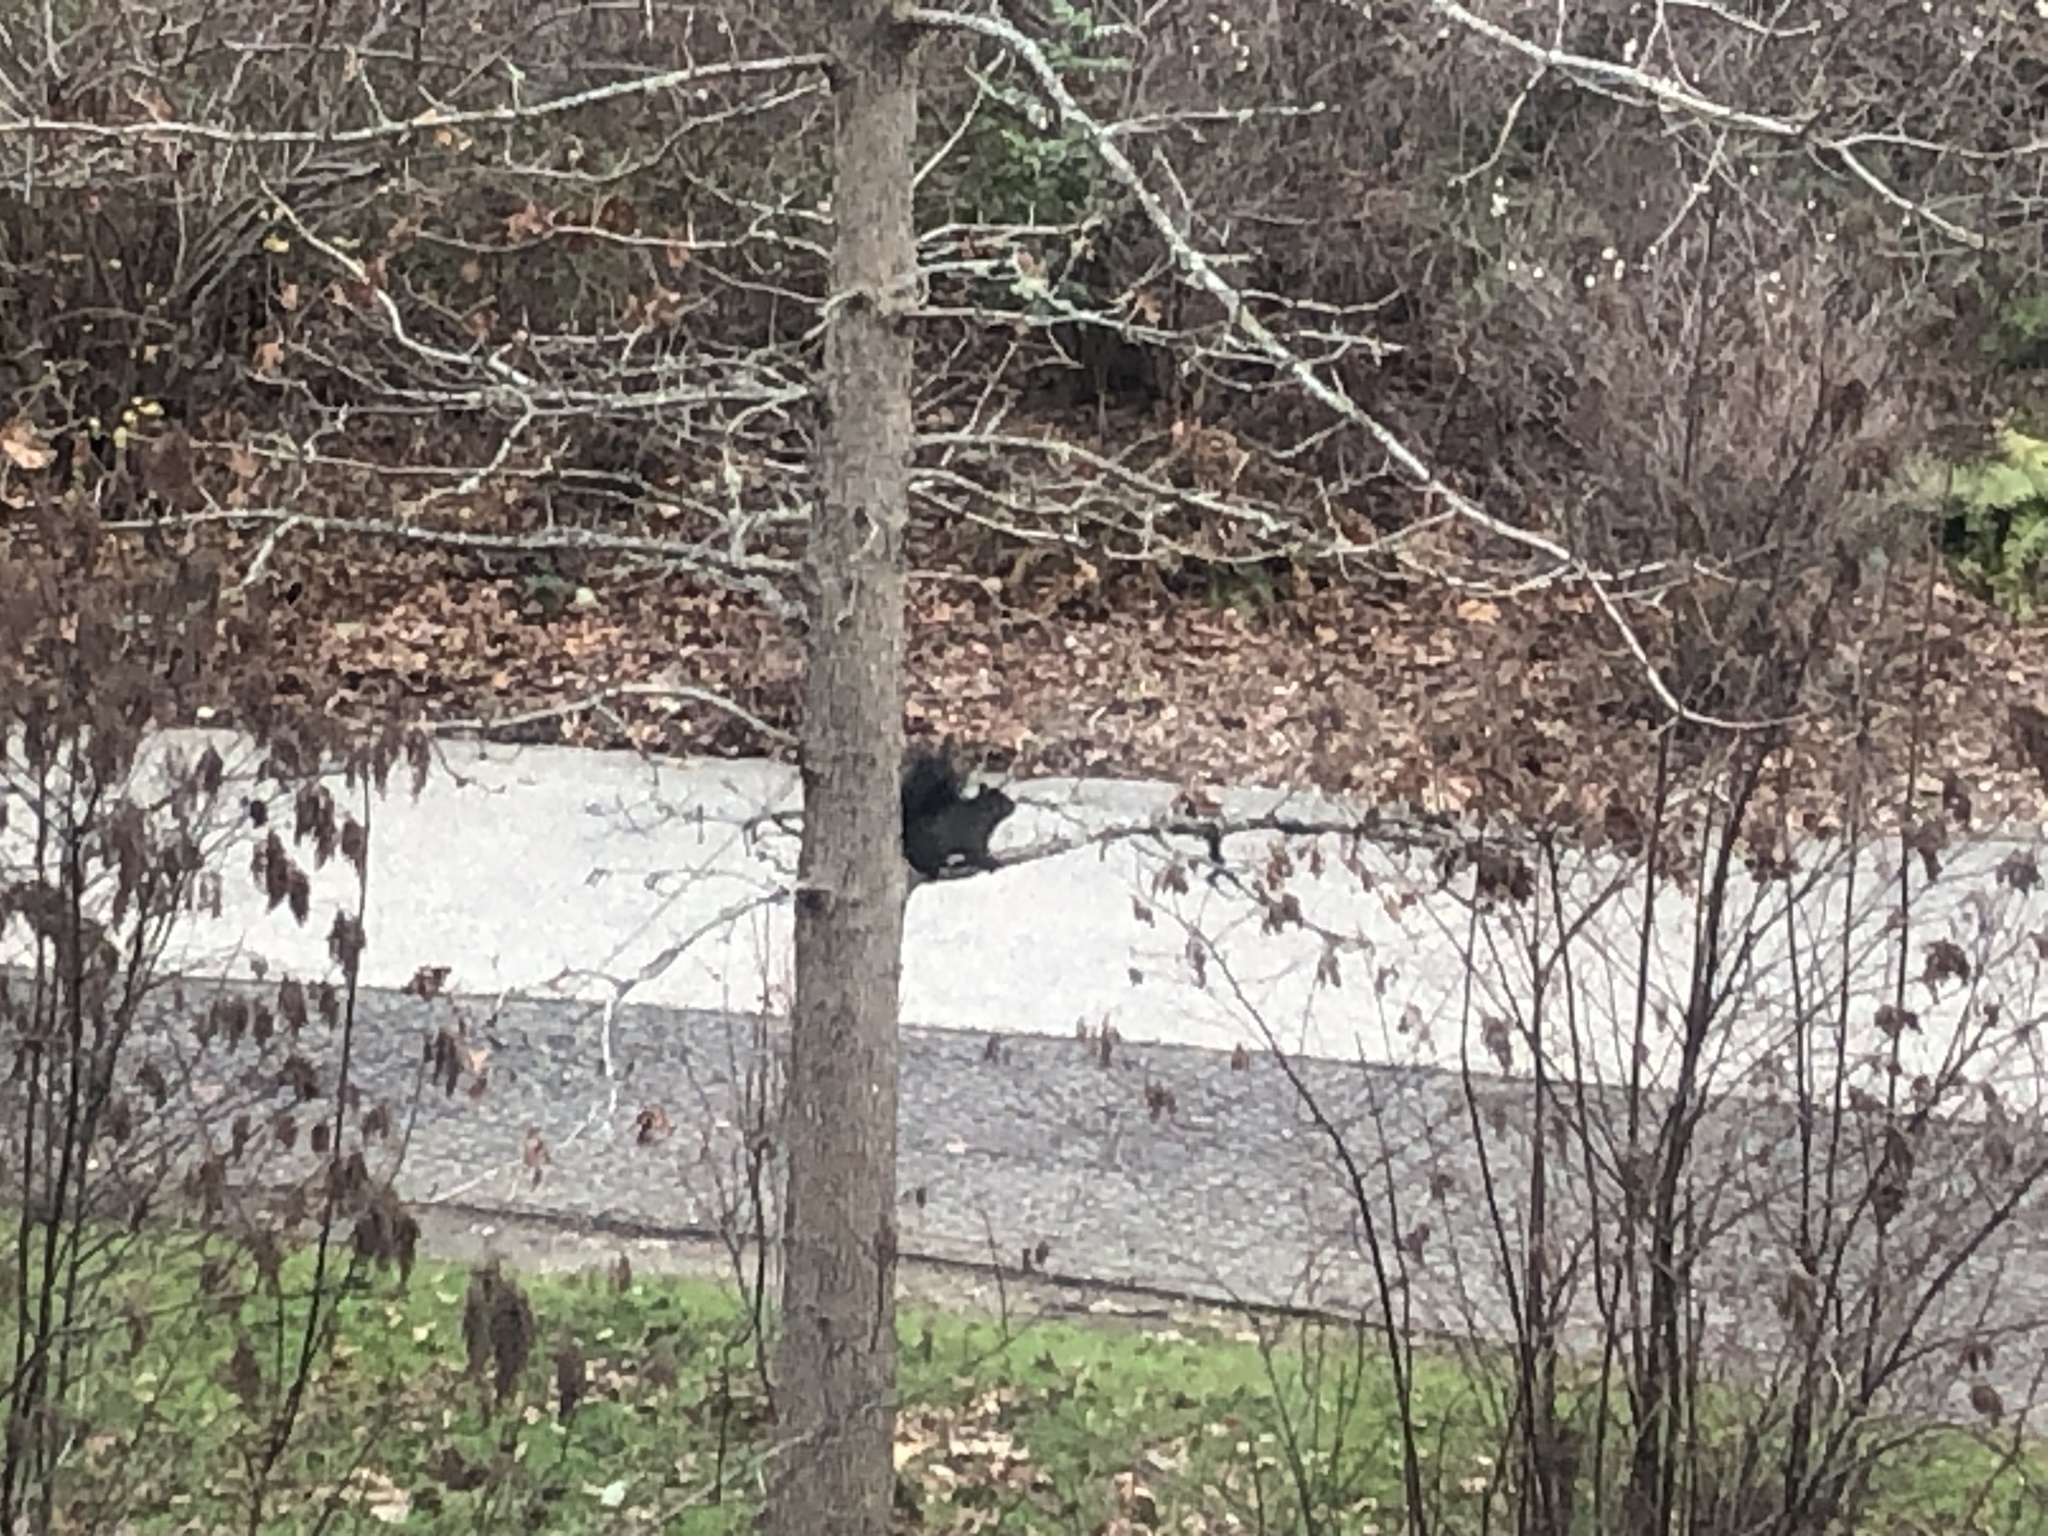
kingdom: Animalia
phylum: Chordata
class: Mammalia
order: Rodentia
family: Sciuridae
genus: Sciurus
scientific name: Sciurus carolinensis
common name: Eastern gray squirrel
